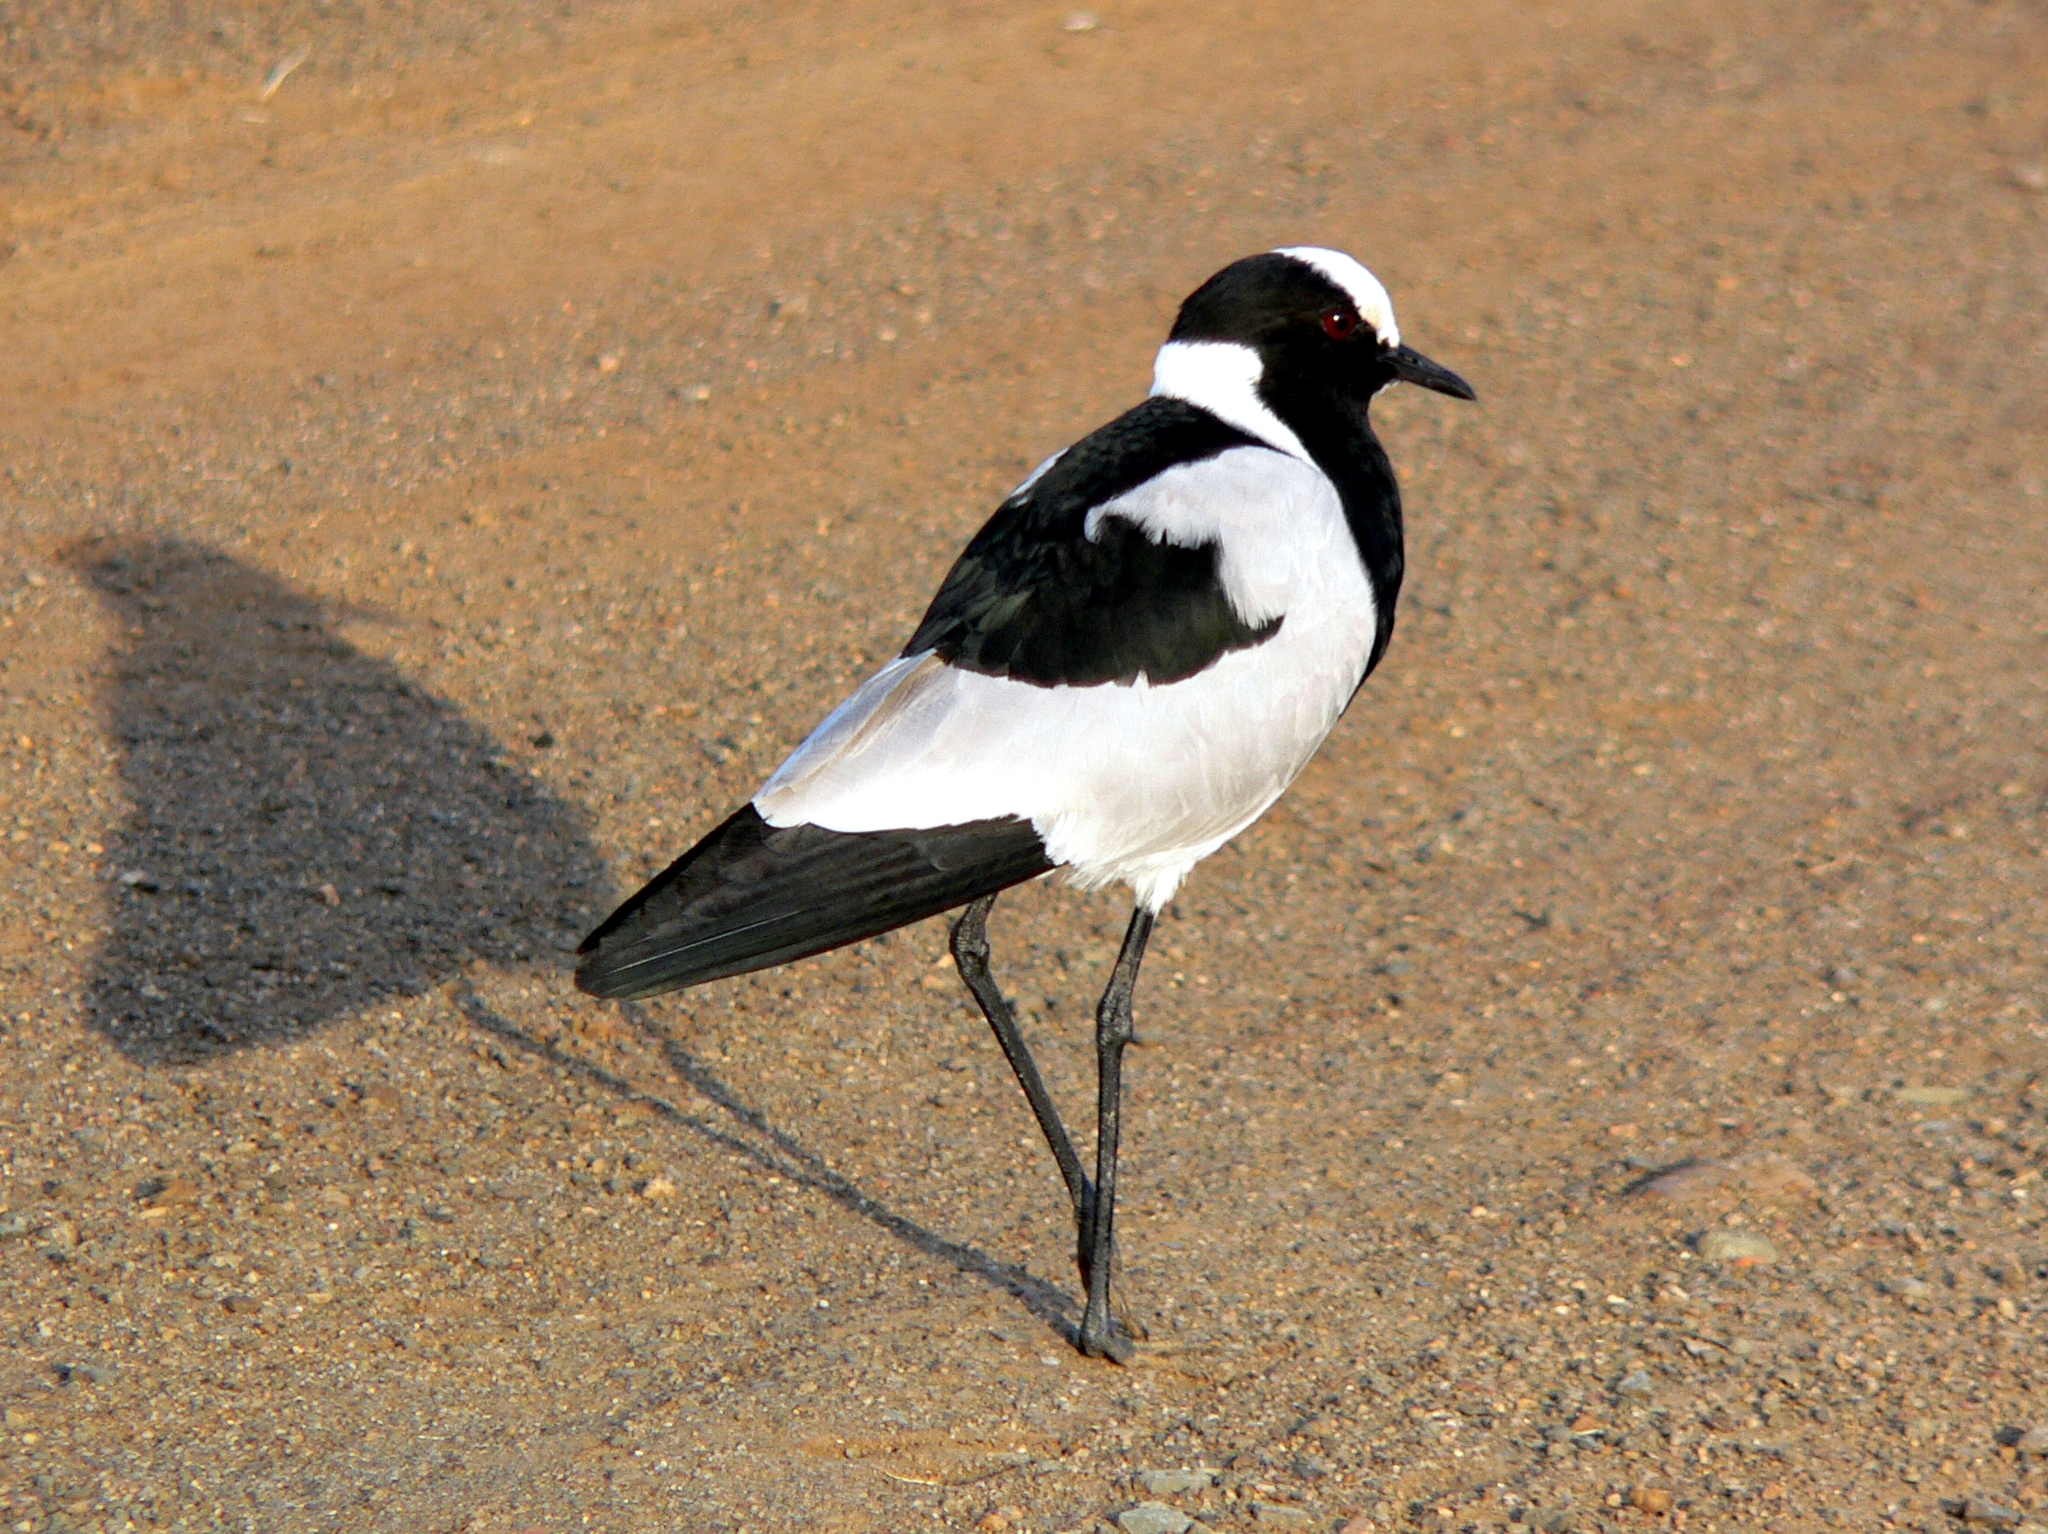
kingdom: Animalia
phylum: Chordata
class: Aves
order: Charadriiformes
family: Charadriidae
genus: Vanellus
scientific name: Vanellus armatus
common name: Blacksmith lapwing
